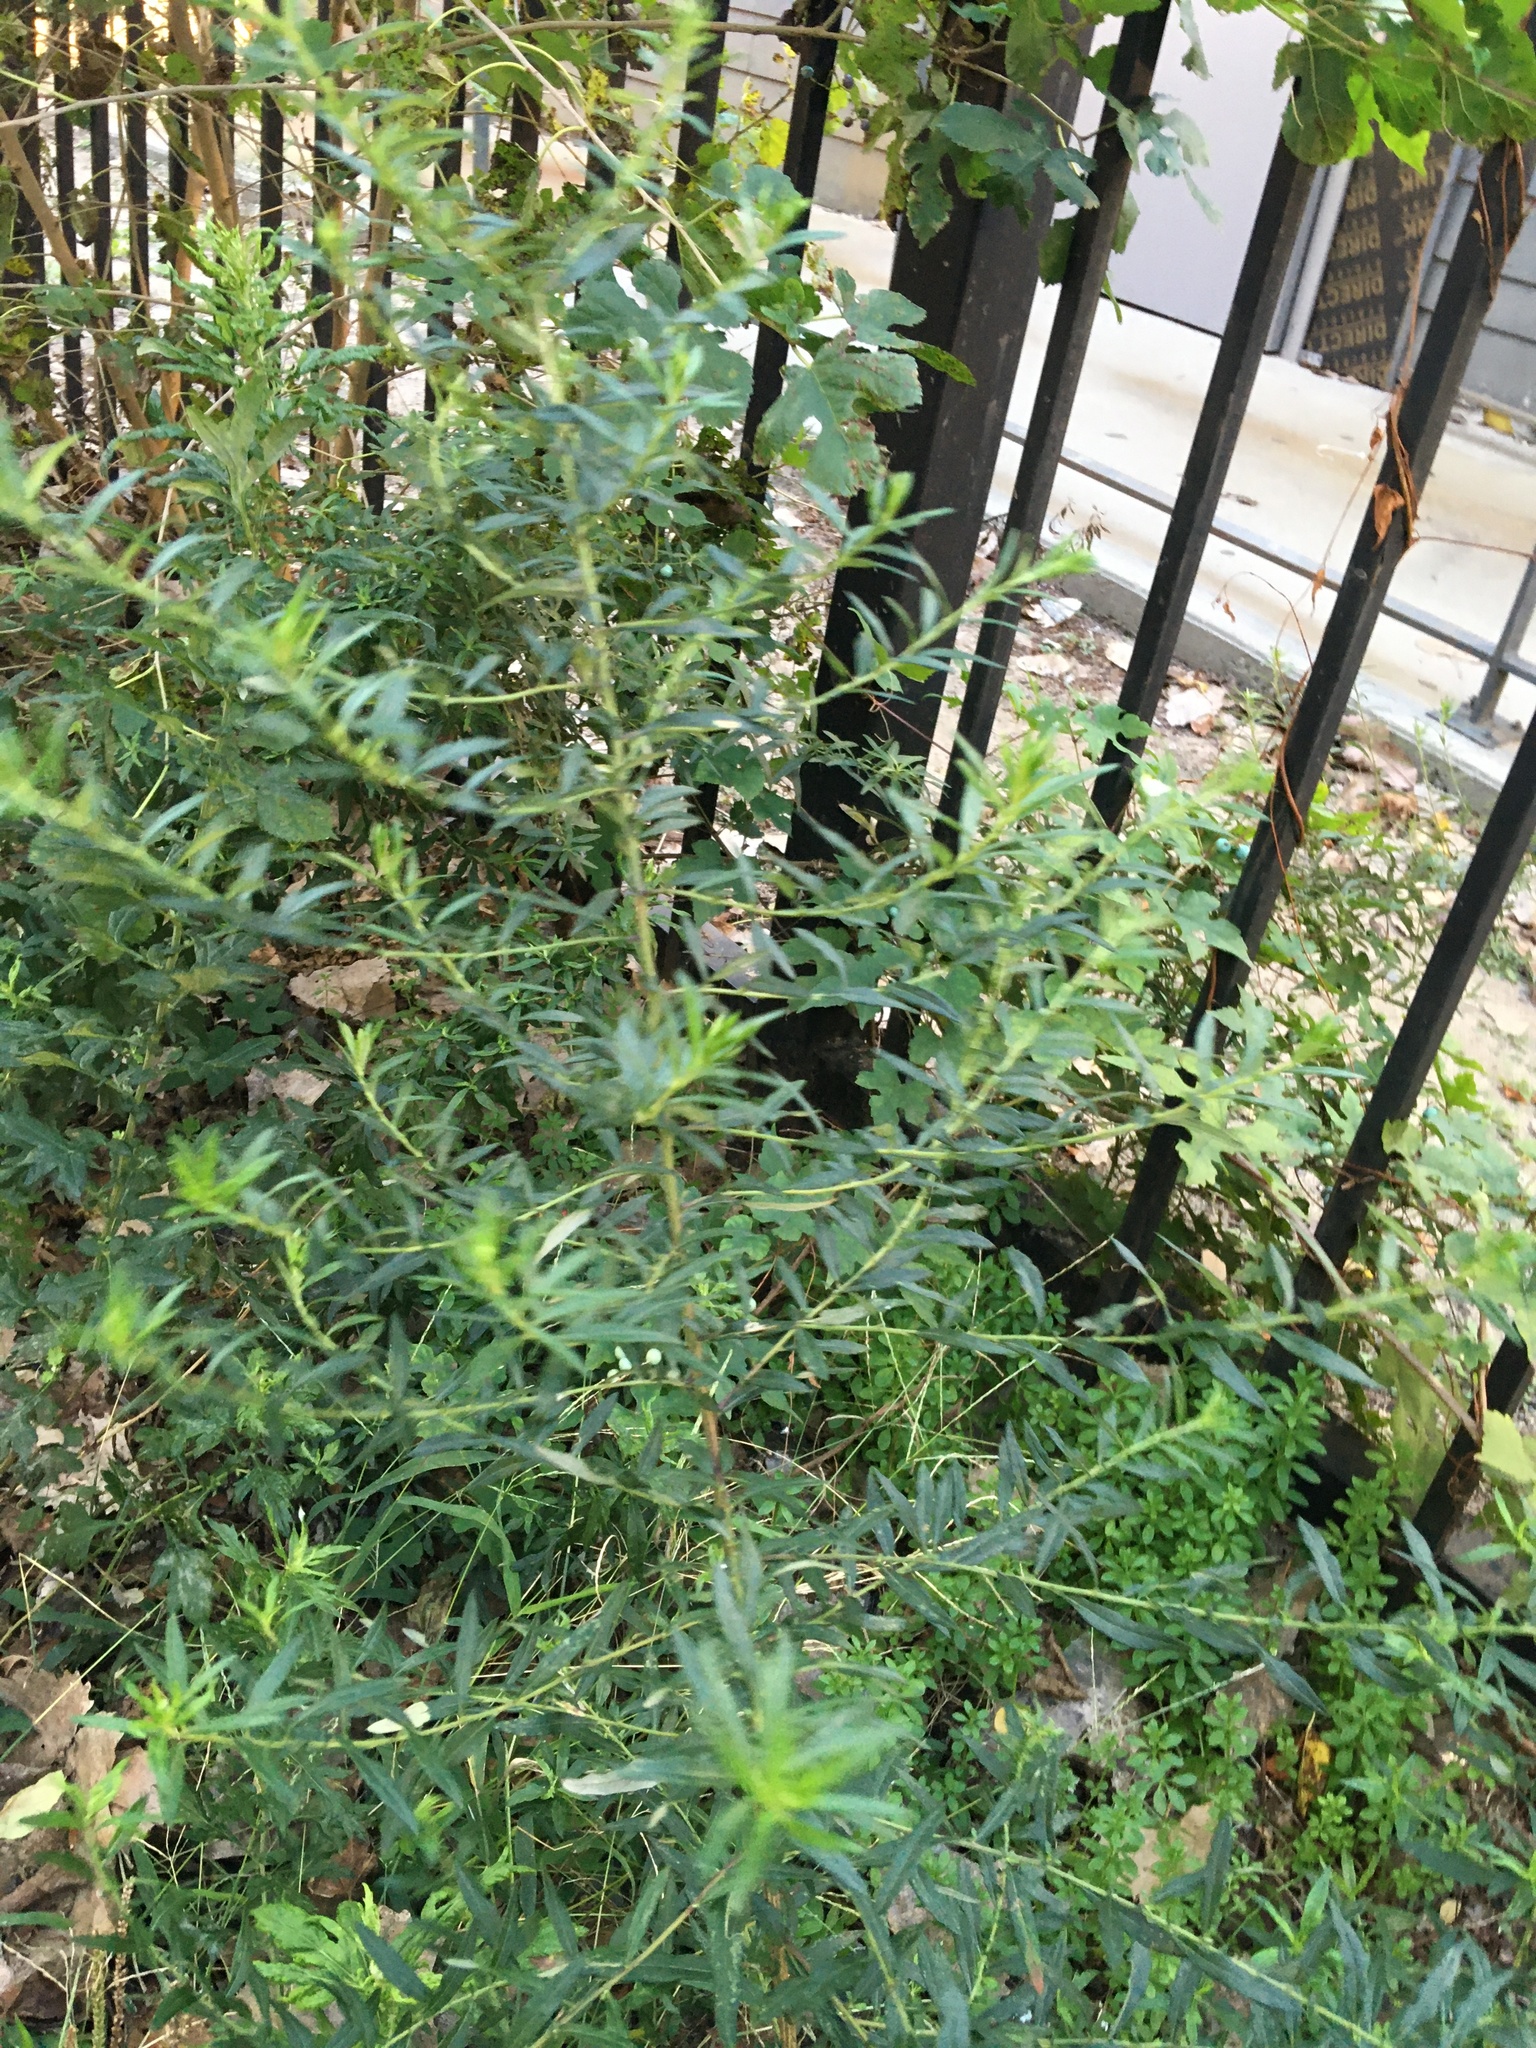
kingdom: Plantae
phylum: Tracheophyta
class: Magnoliopsida
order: Asterales
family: Asteraceae
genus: Artemisia
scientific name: Artemisia vulgaris
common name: Mugwort
